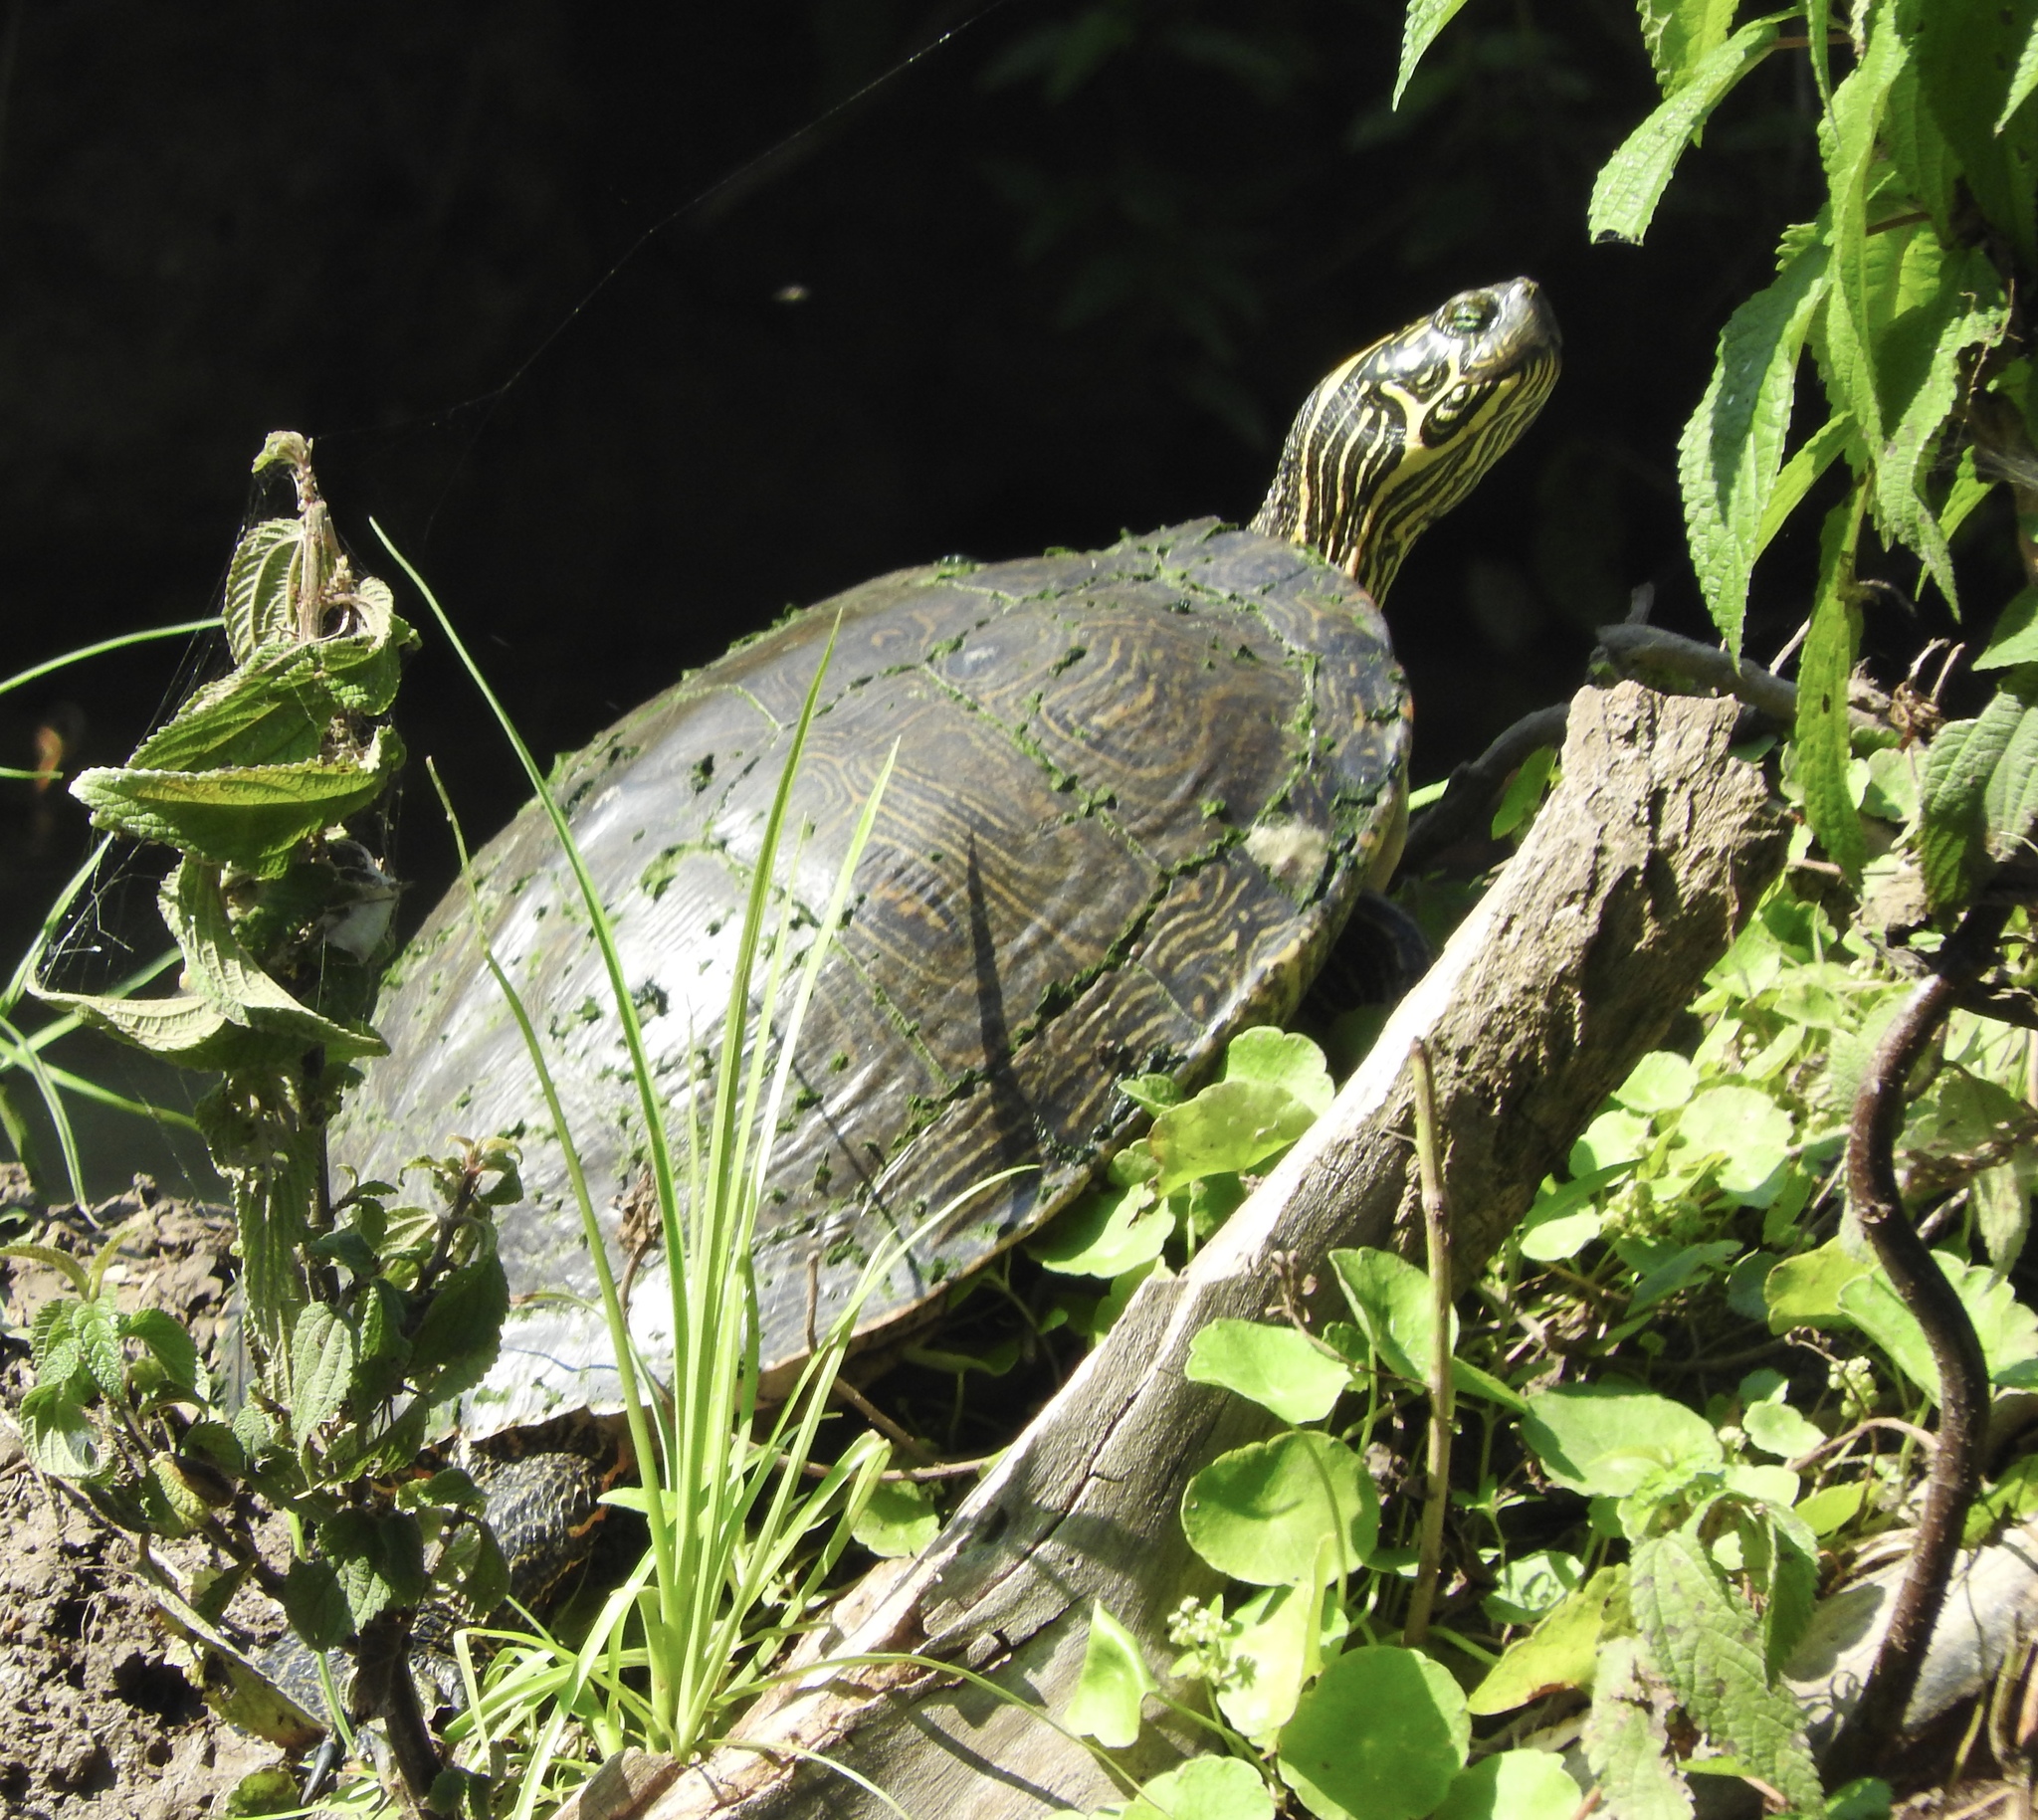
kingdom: Animalia
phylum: Chordata
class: Testudines
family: Emydidae
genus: Pseudemys
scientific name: Pseudemys texana
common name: Texas river cooter
